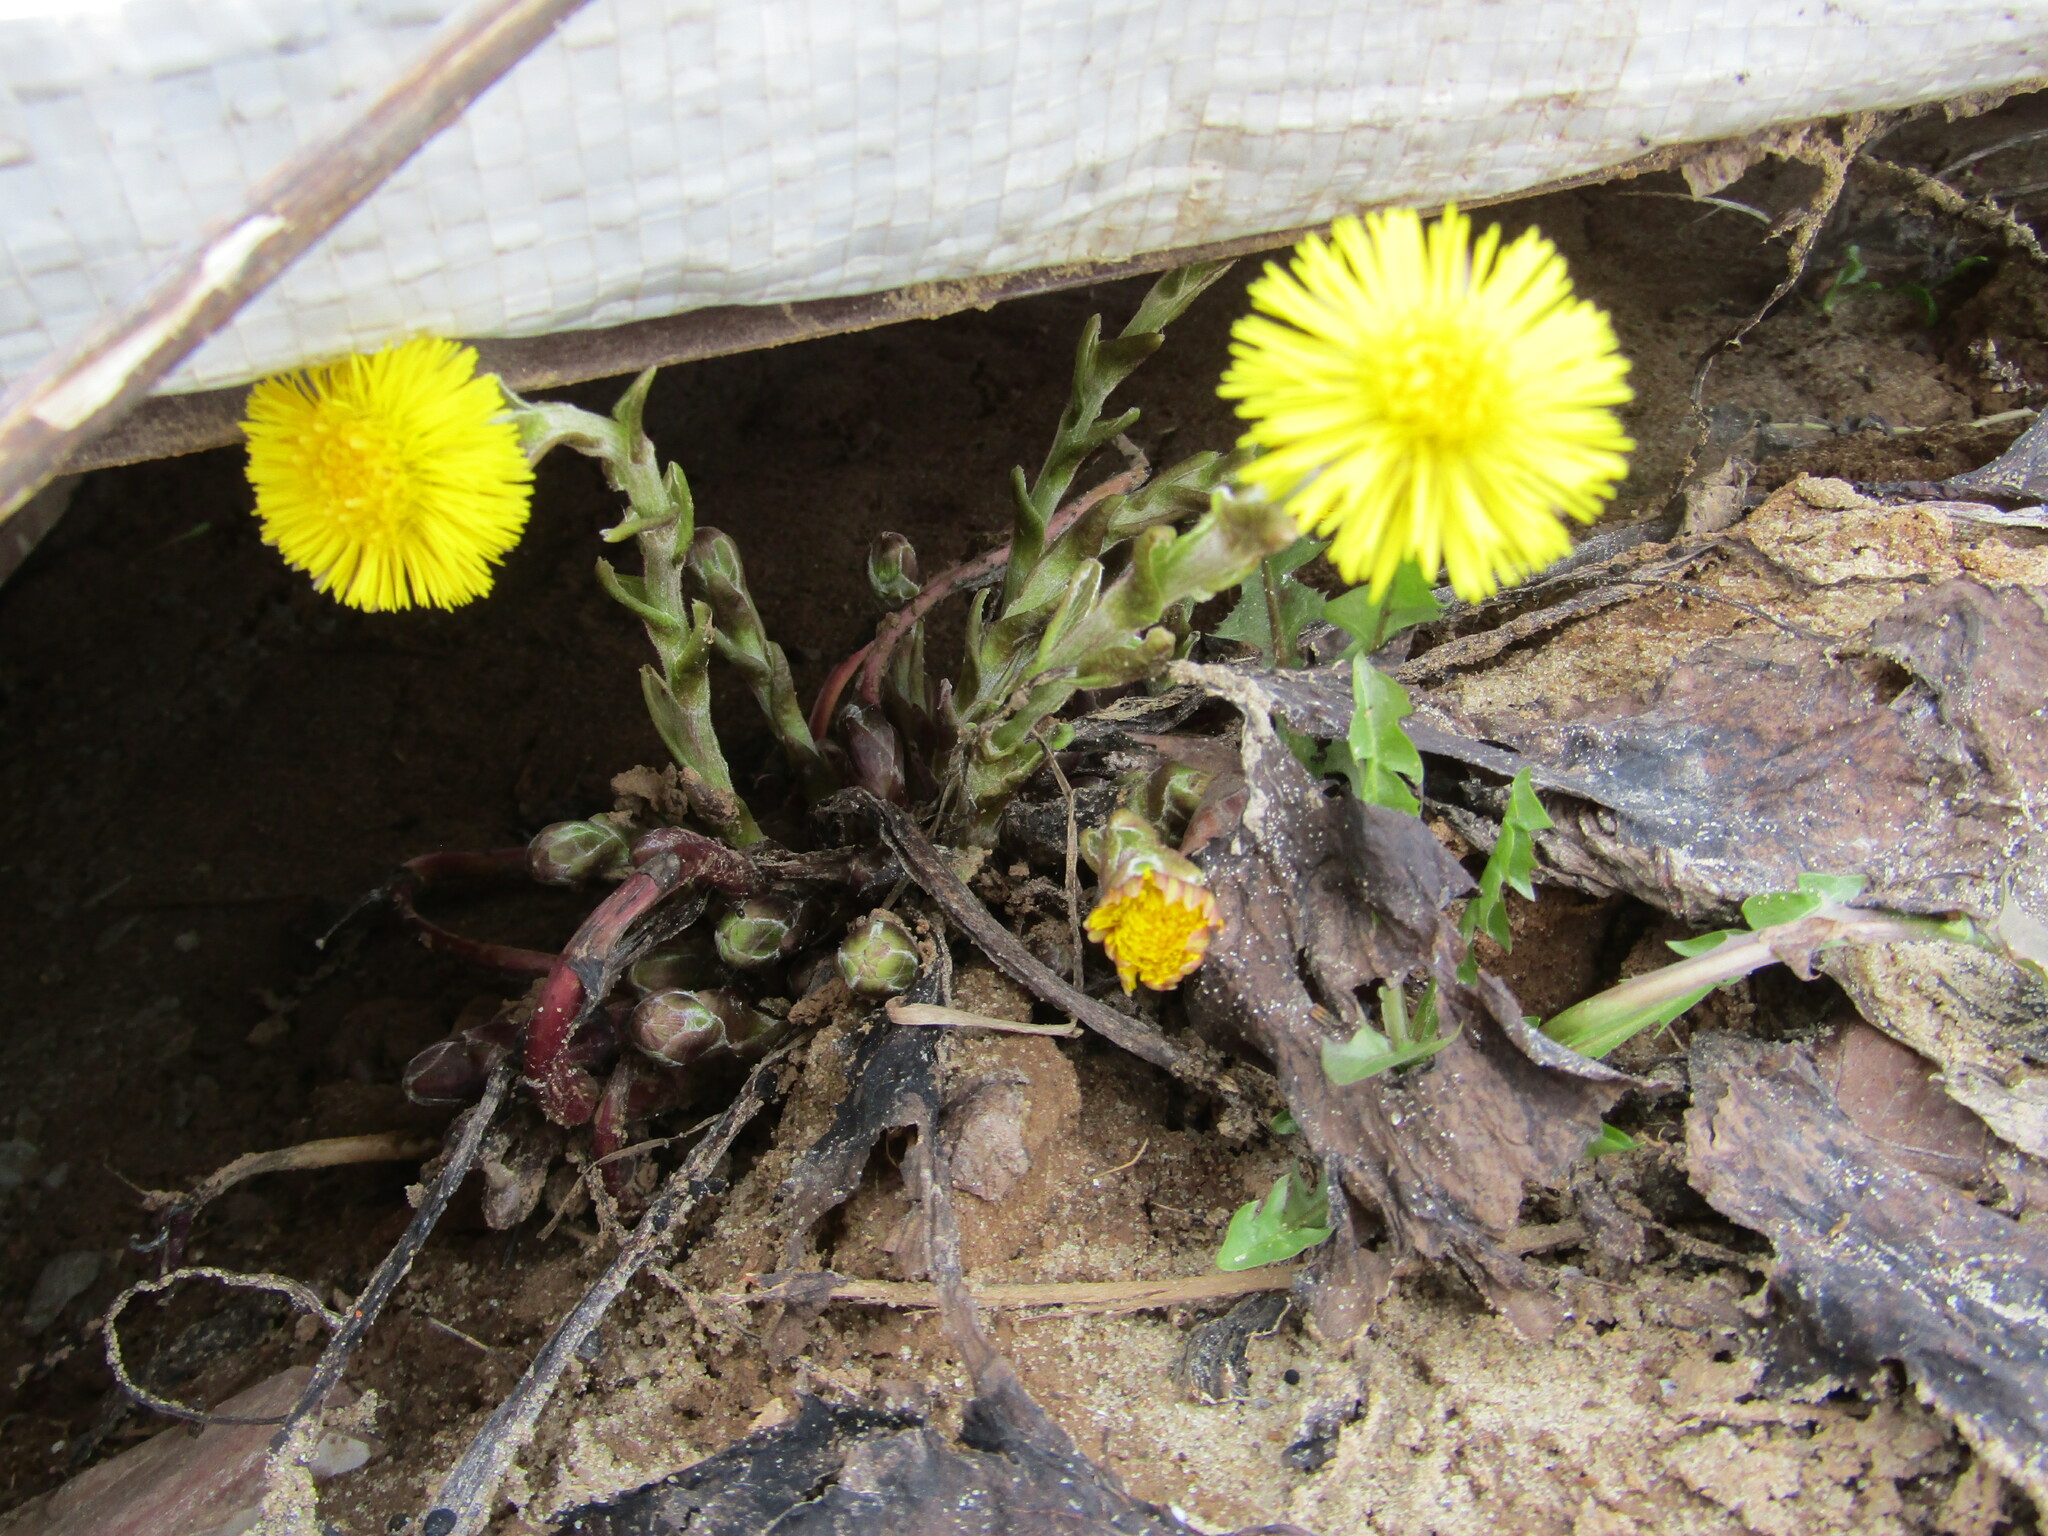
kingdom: Plantae
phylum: Tracheophyta
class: Magnoliopsida
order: Asterales
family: Asteraceae
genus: Tussilago
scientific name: Tussilago farfara
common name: Coltsfoot
